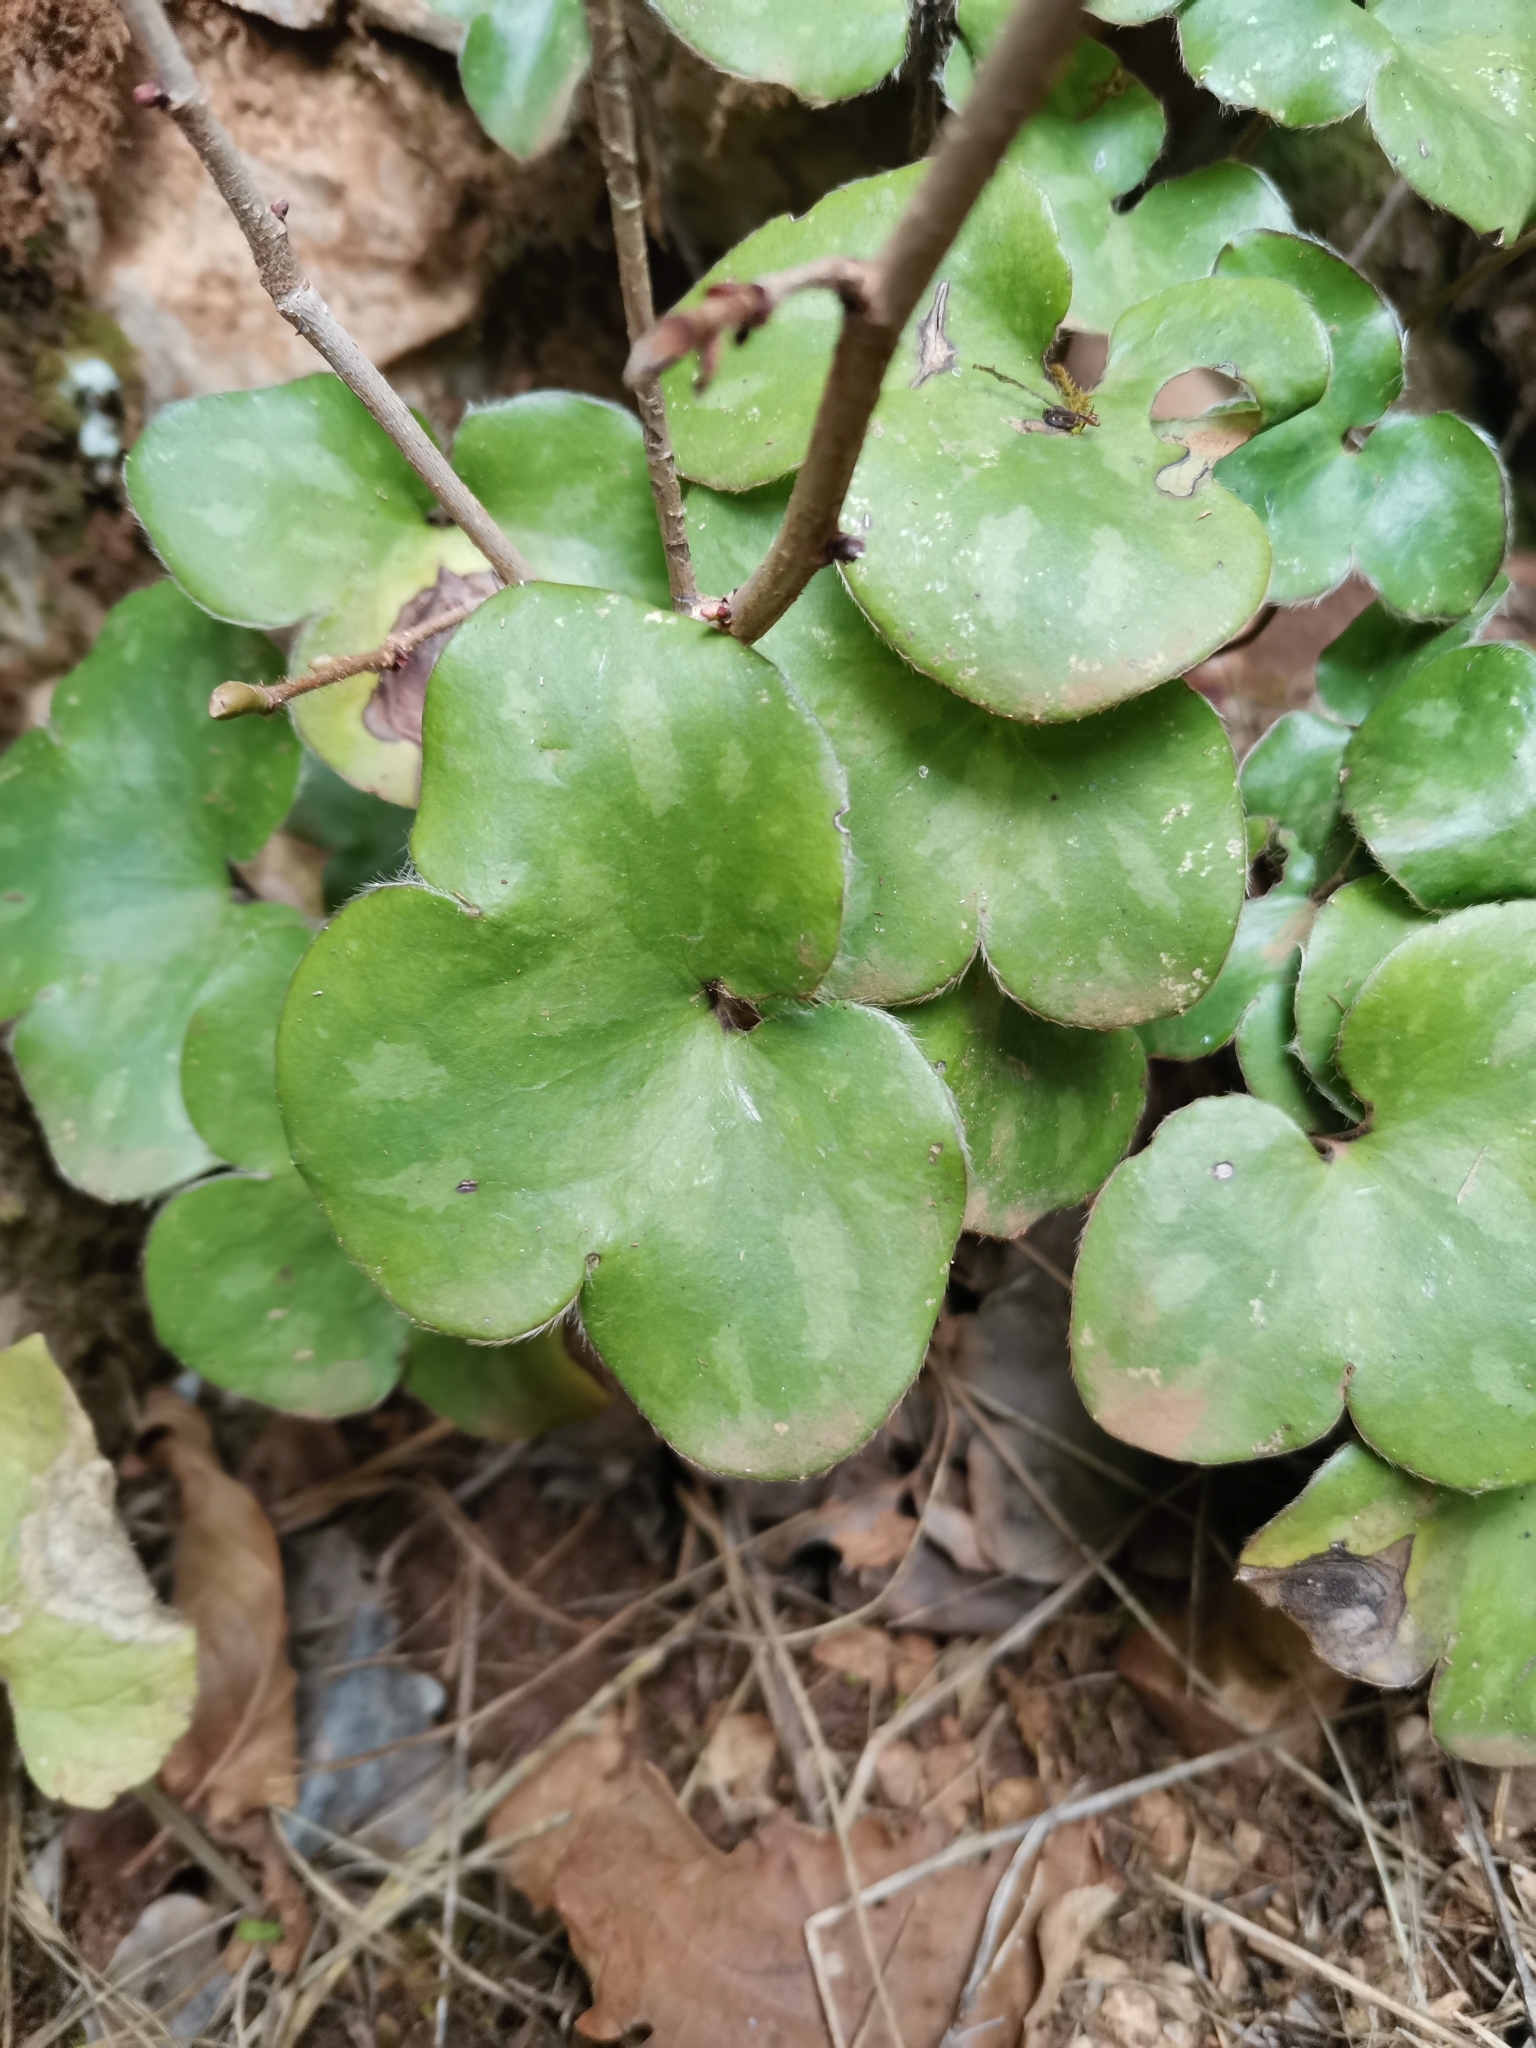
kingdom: Plantae
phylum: Tracheophyta
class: Magnoliopsida
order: Ranunculales
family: Ranunculaceae
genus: Hepatica
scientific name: Hepatica nobilis
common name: Liverleaf
